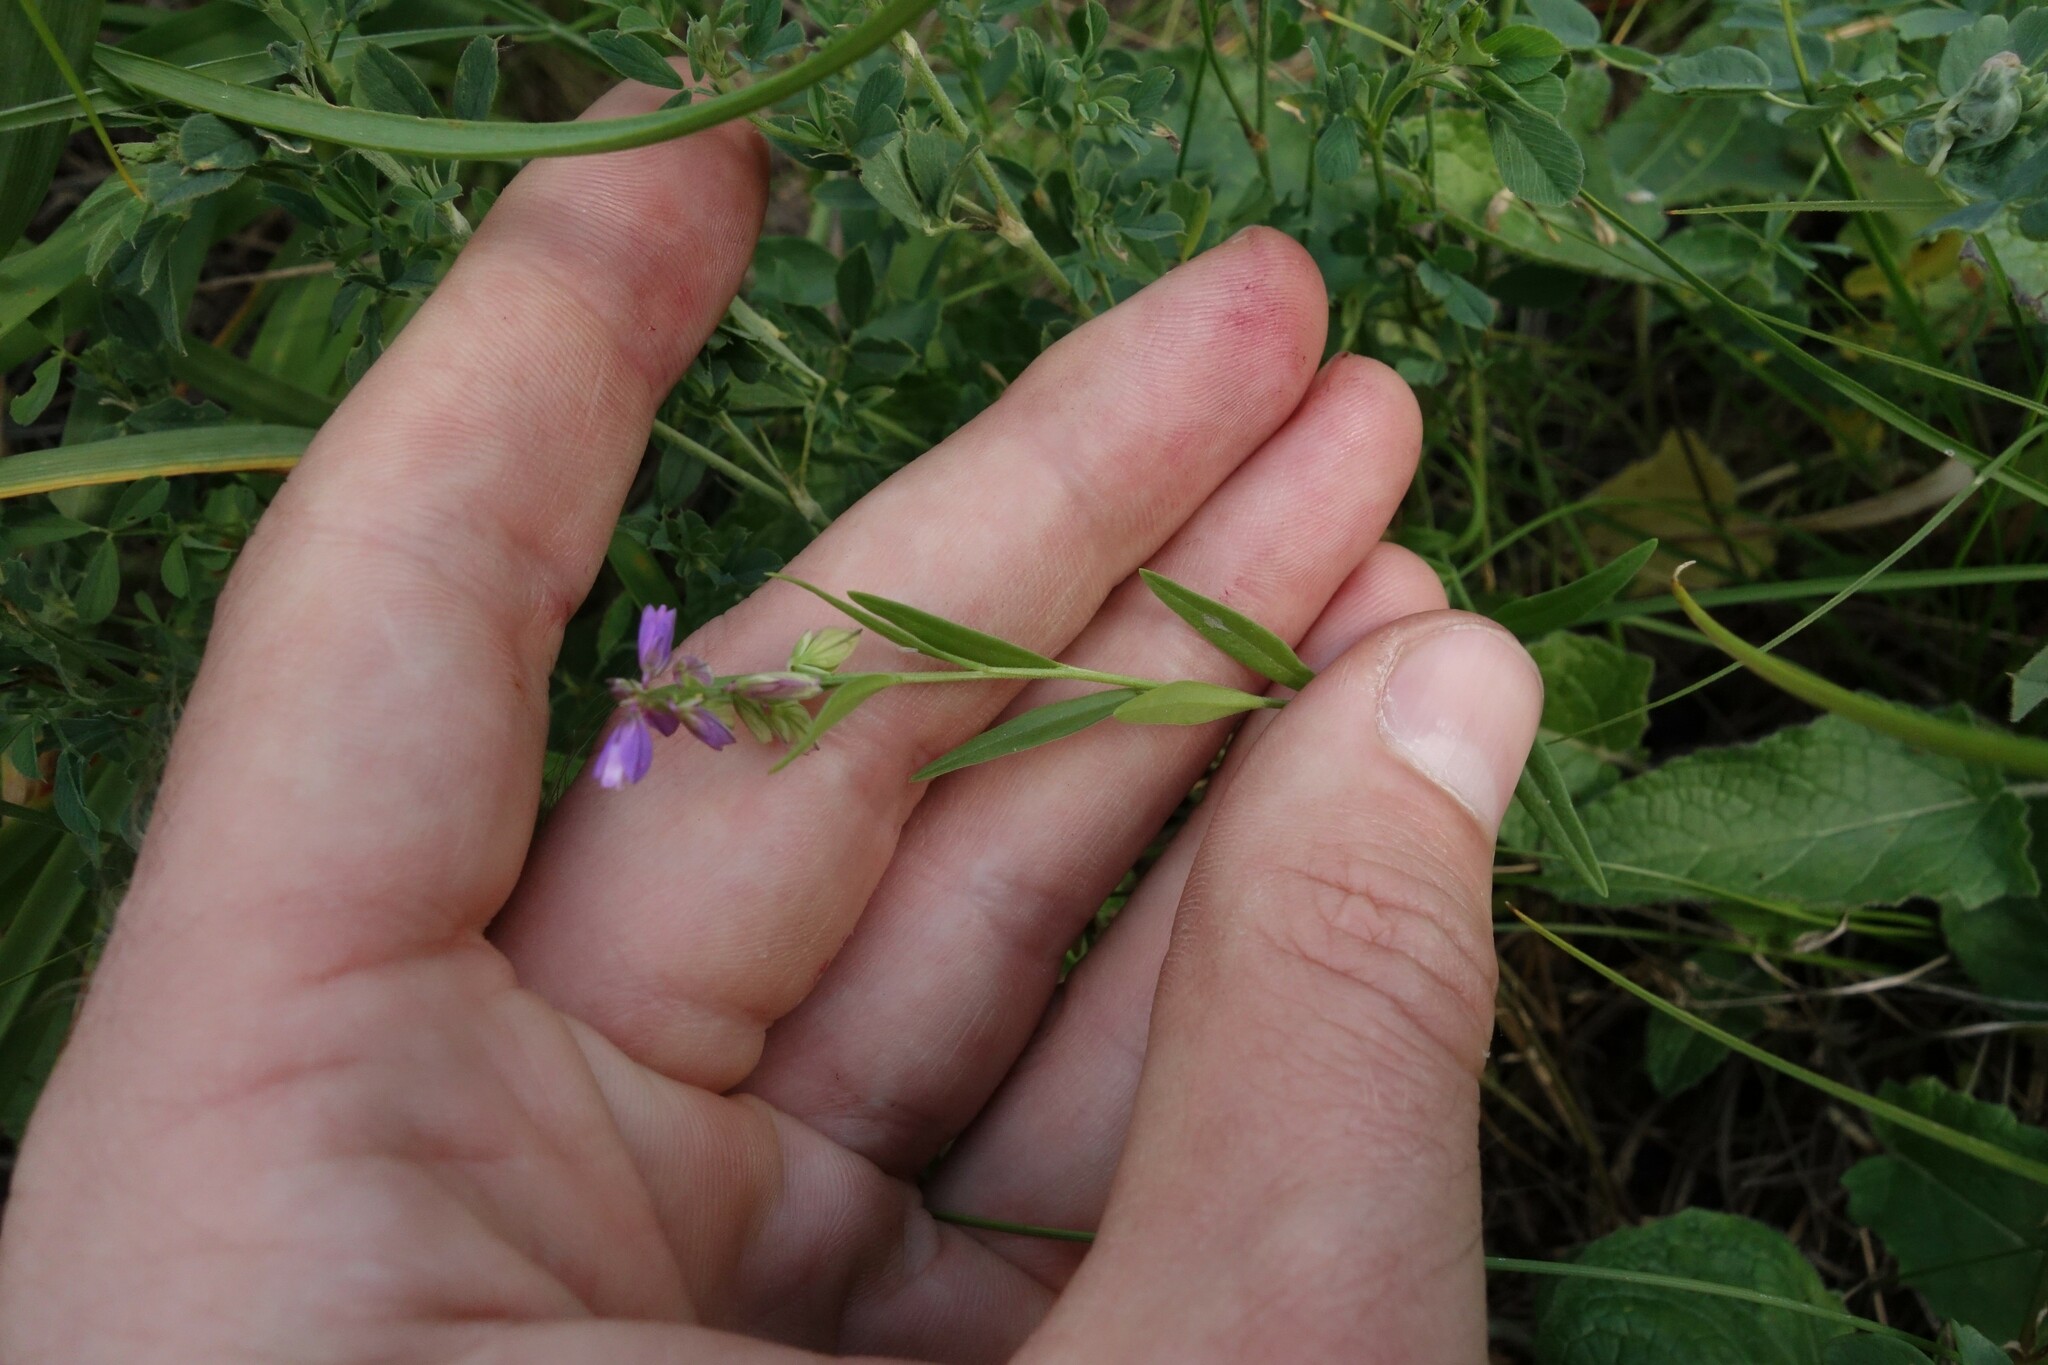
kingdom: Plantae
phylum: Tracheophyta
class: Magnoliopsida
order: Fabales
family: Polygalaceae
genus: Polygala
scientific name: Polygala comosa
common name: Tufted milkwort
